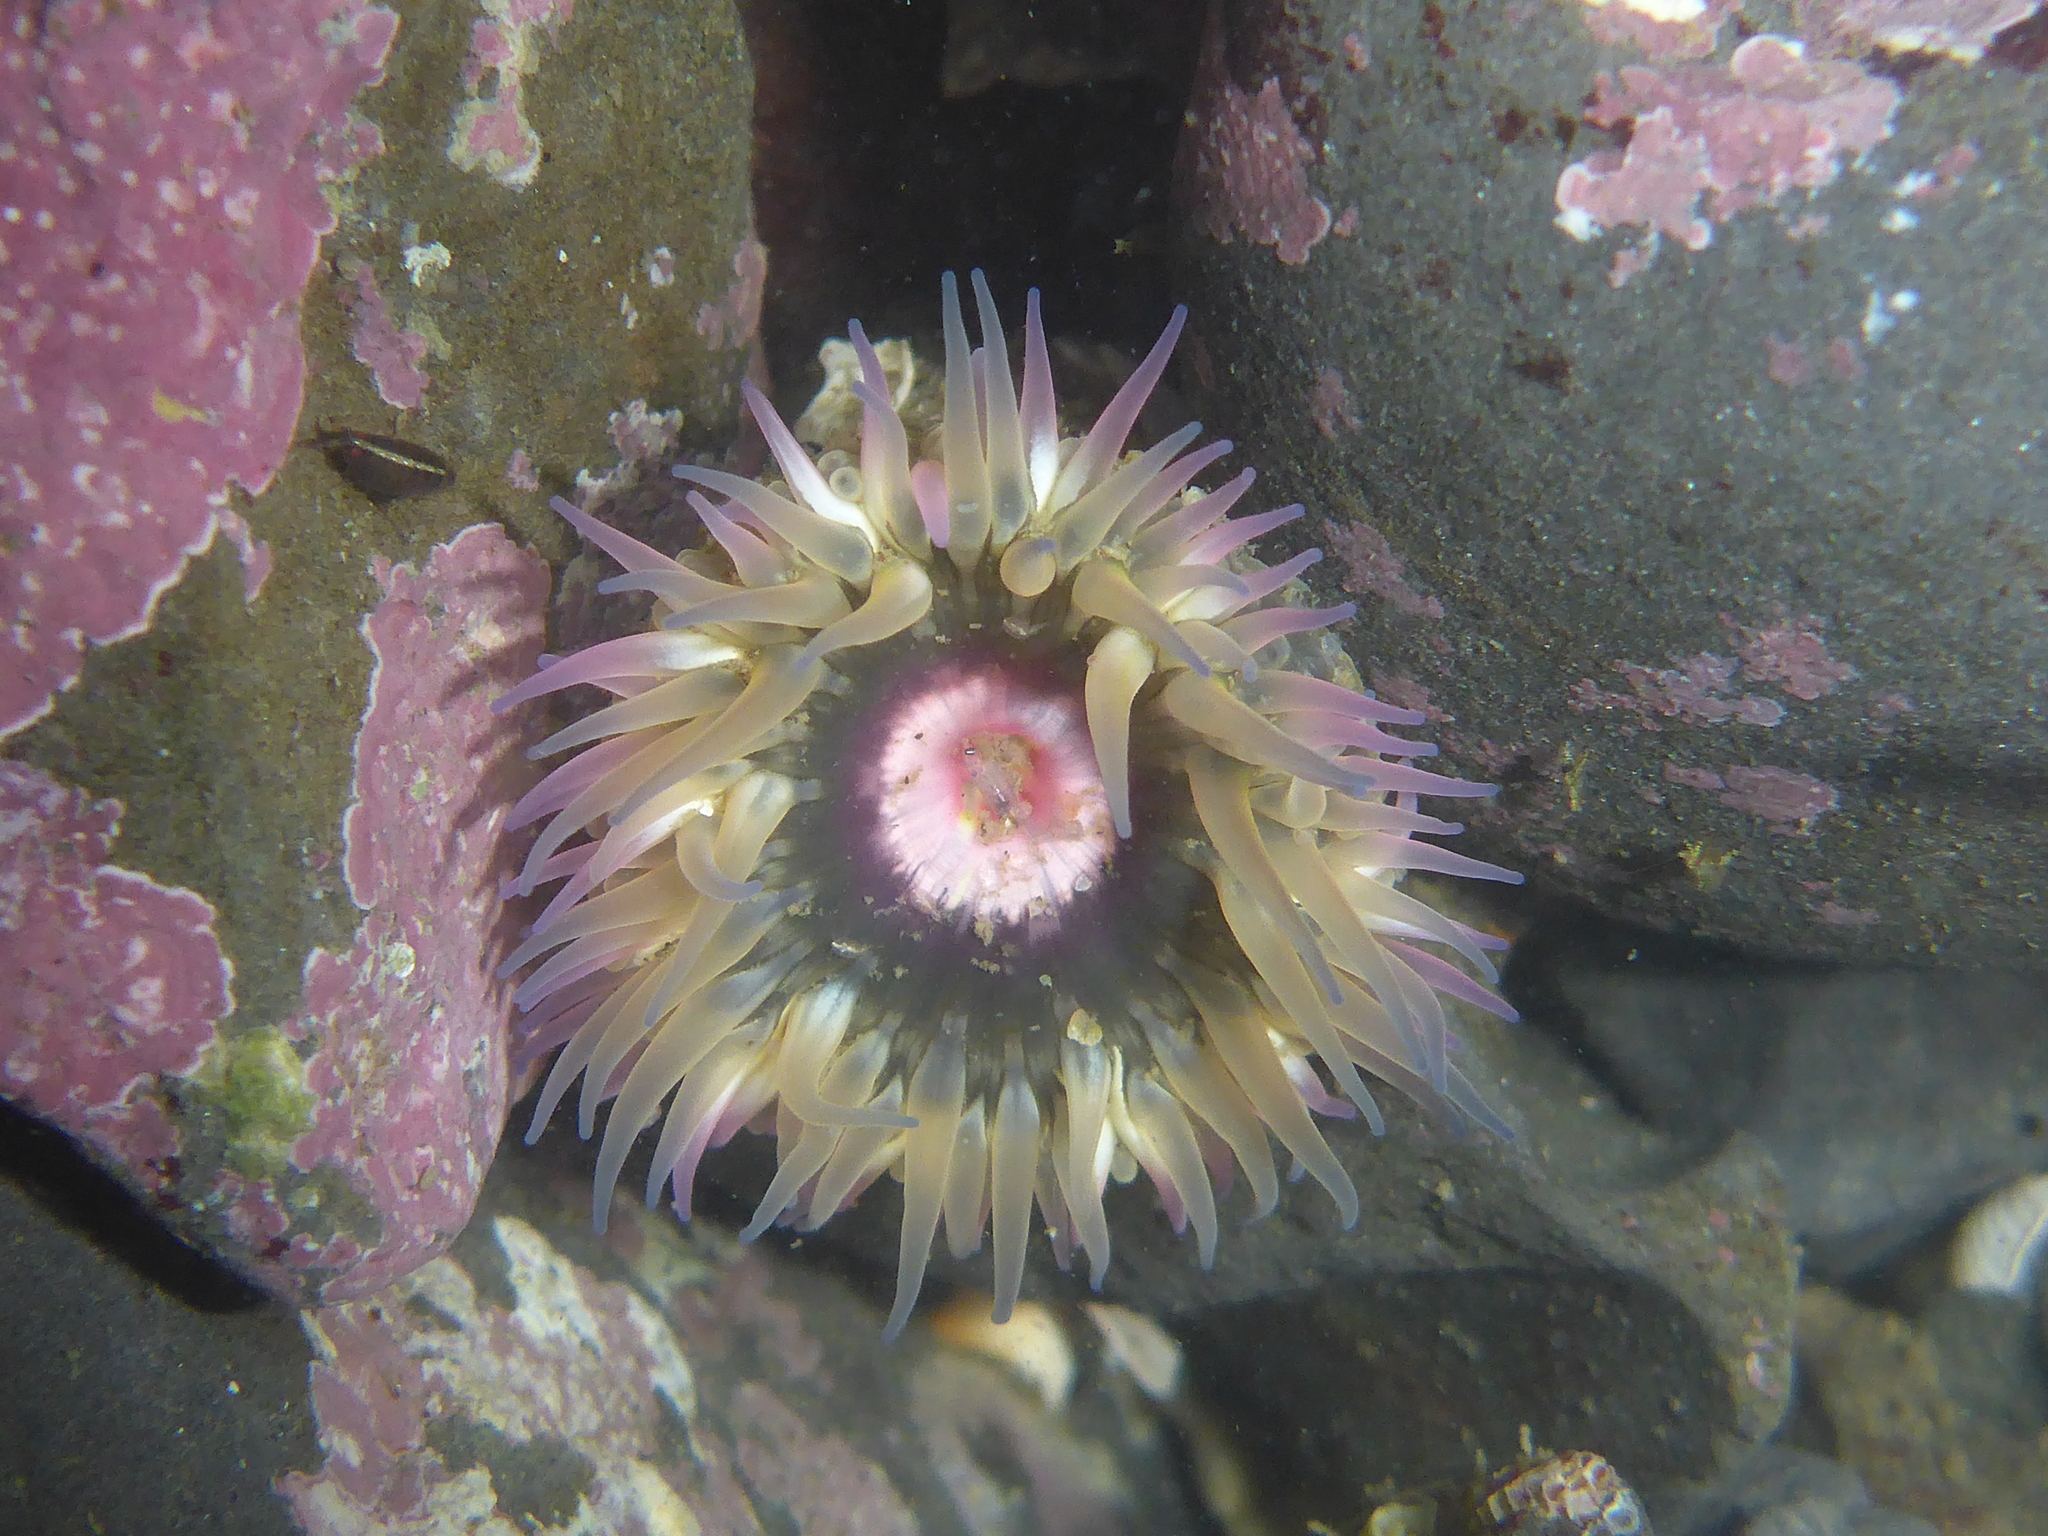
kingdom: Animalia
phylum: Cnidaria
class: Anthozoa
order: Actiniaria
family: Actiniidae
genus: Anthopleura
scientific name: Anthopleura artemisia
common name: Buried sea anemone
